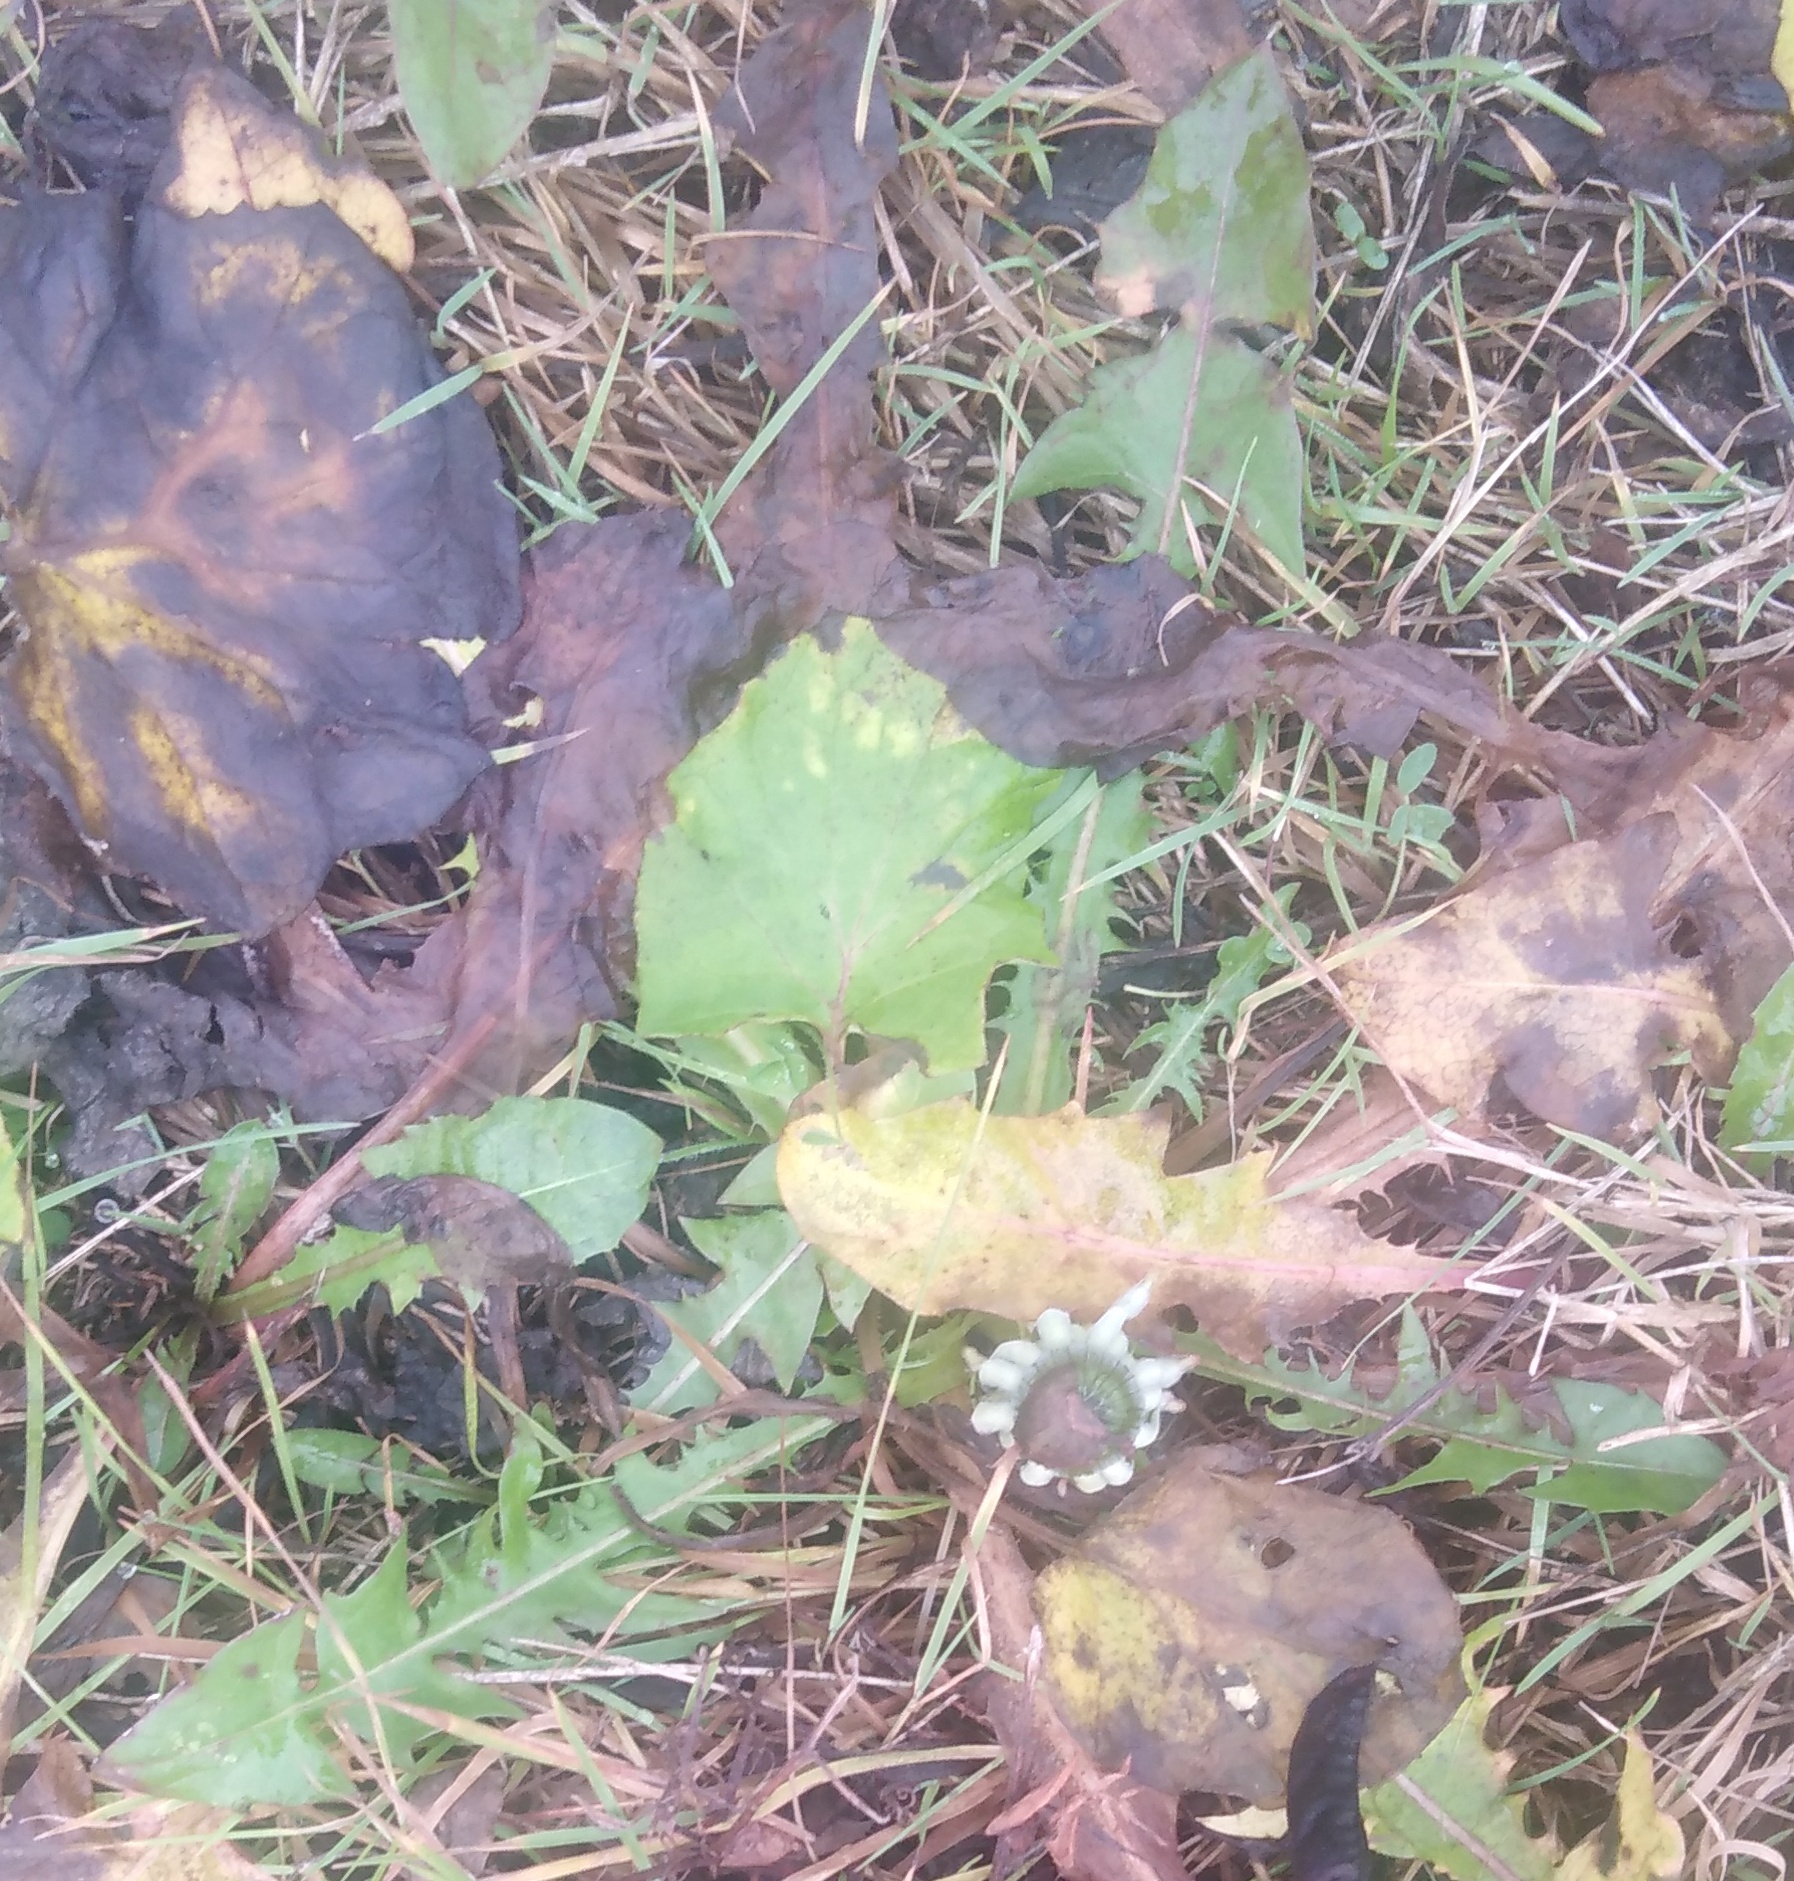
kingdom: Plantae
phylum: Tracheophyta
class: Magnoliopsida
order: Asterales
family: Asteraceae
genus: Taraxacum
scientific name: Taraxacum officinale
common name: Common dandelion
